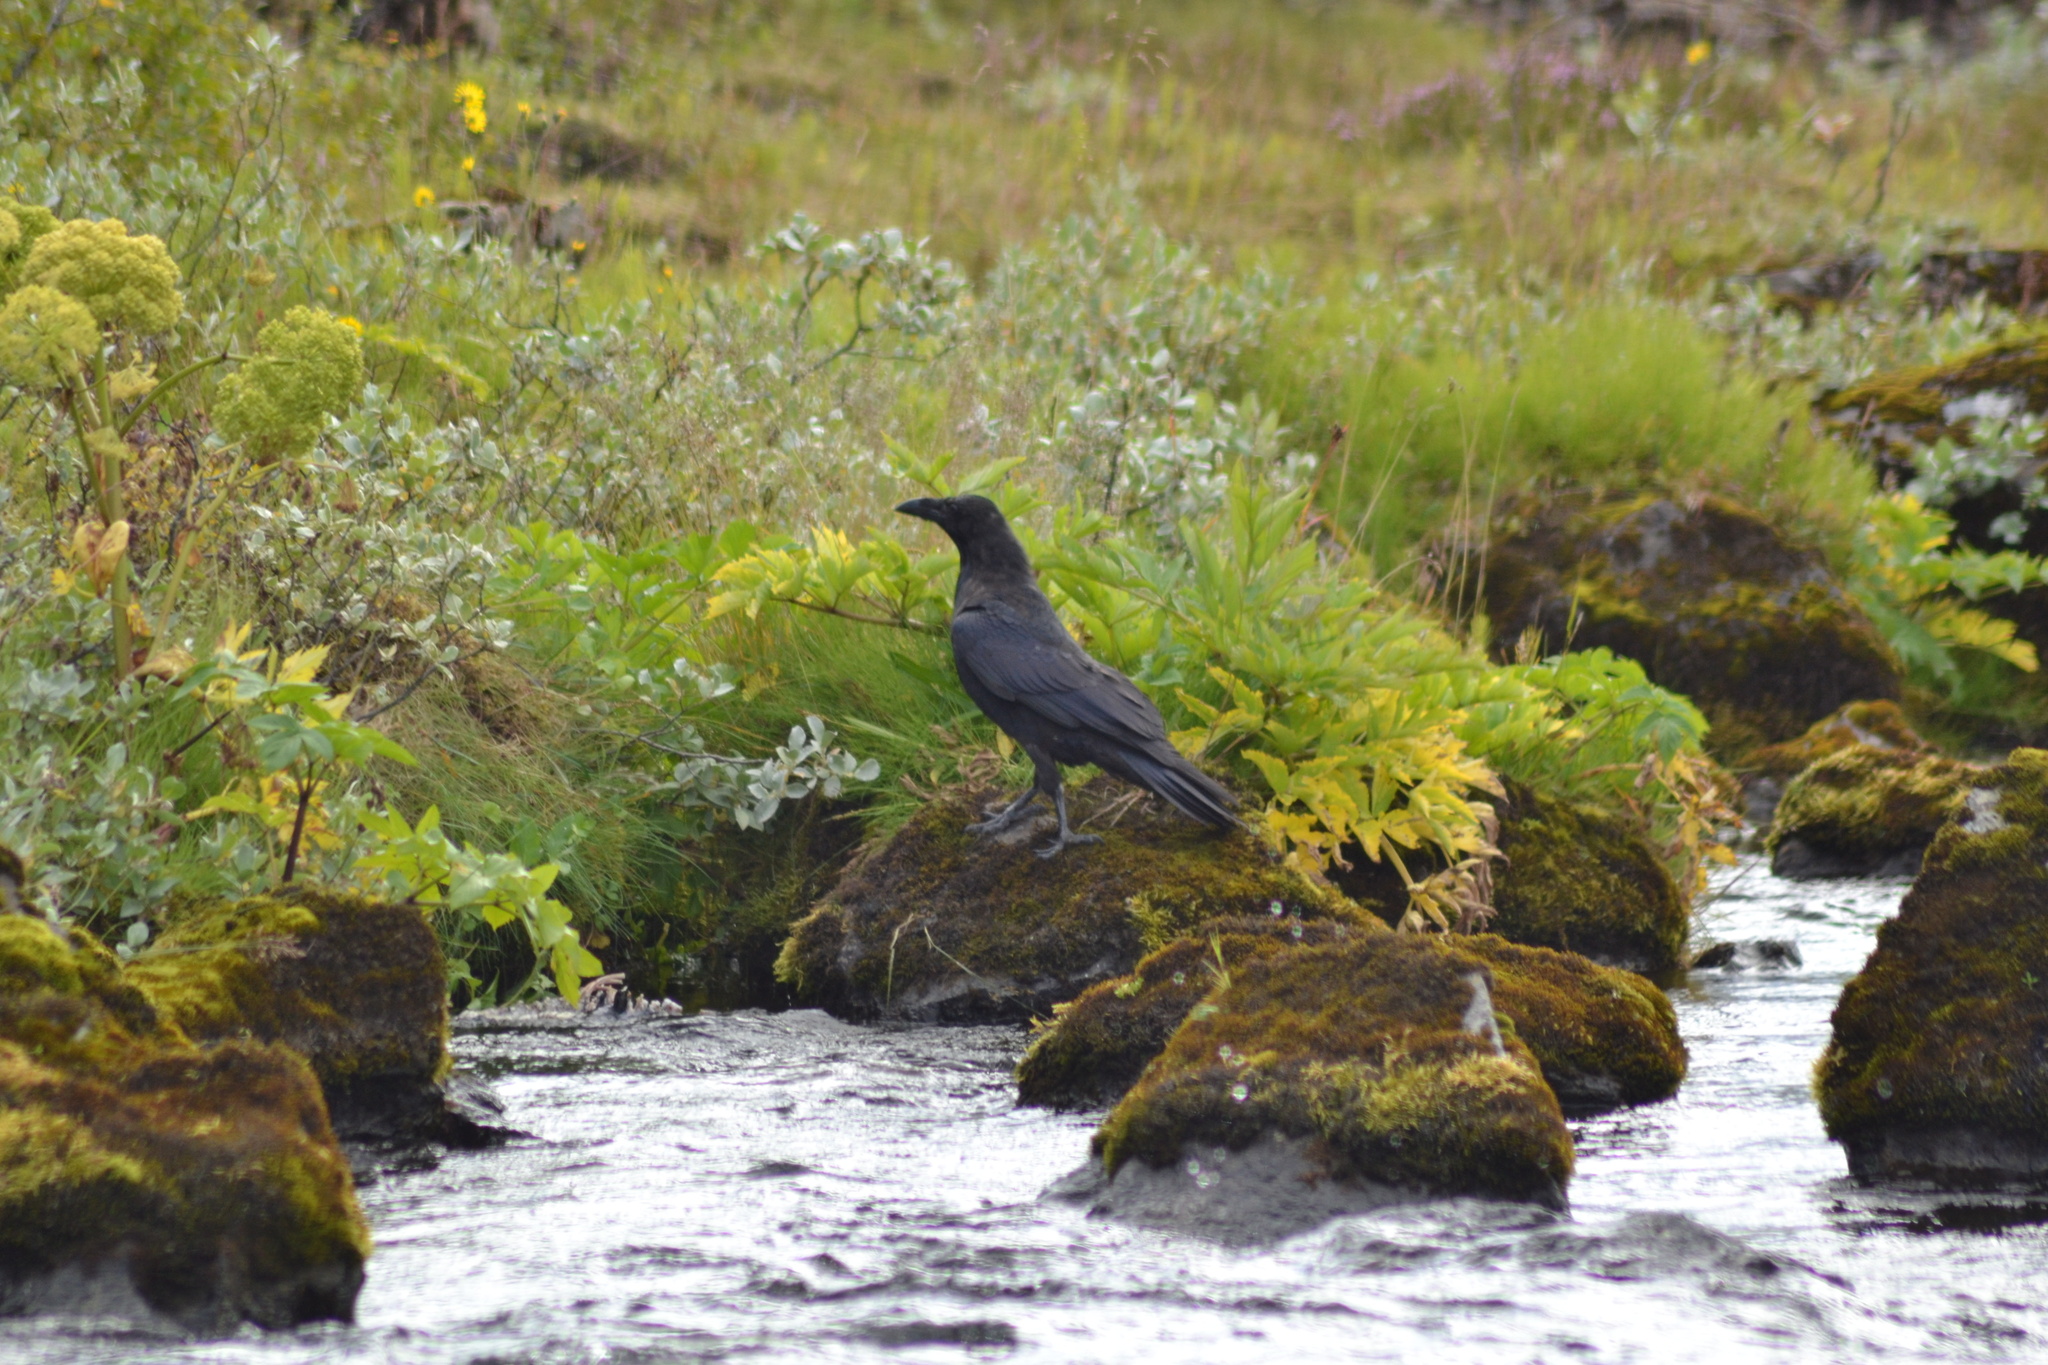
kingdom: Animalia
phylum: Chordata
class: Aves
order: Passeriformes
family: Corvidae
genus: Corvus
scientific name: Corvus corax
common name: Common raven
